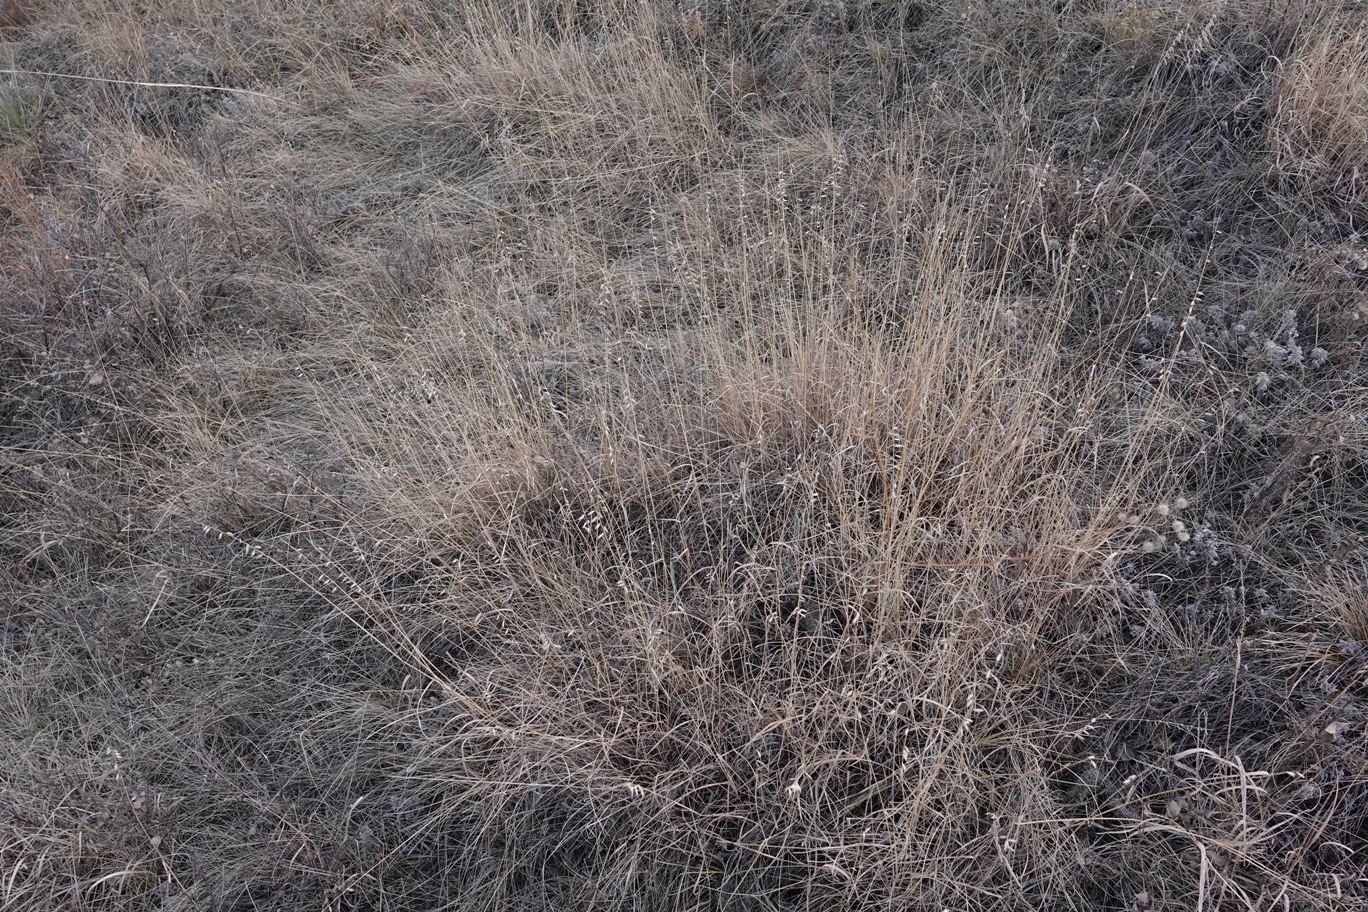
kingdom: Plantae
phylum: Tracheophyta
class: Liliopsida
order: Poales
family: Poaceae
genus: Bouteloua
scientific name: Bouteloua curtipendula
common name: Side-oats grama
